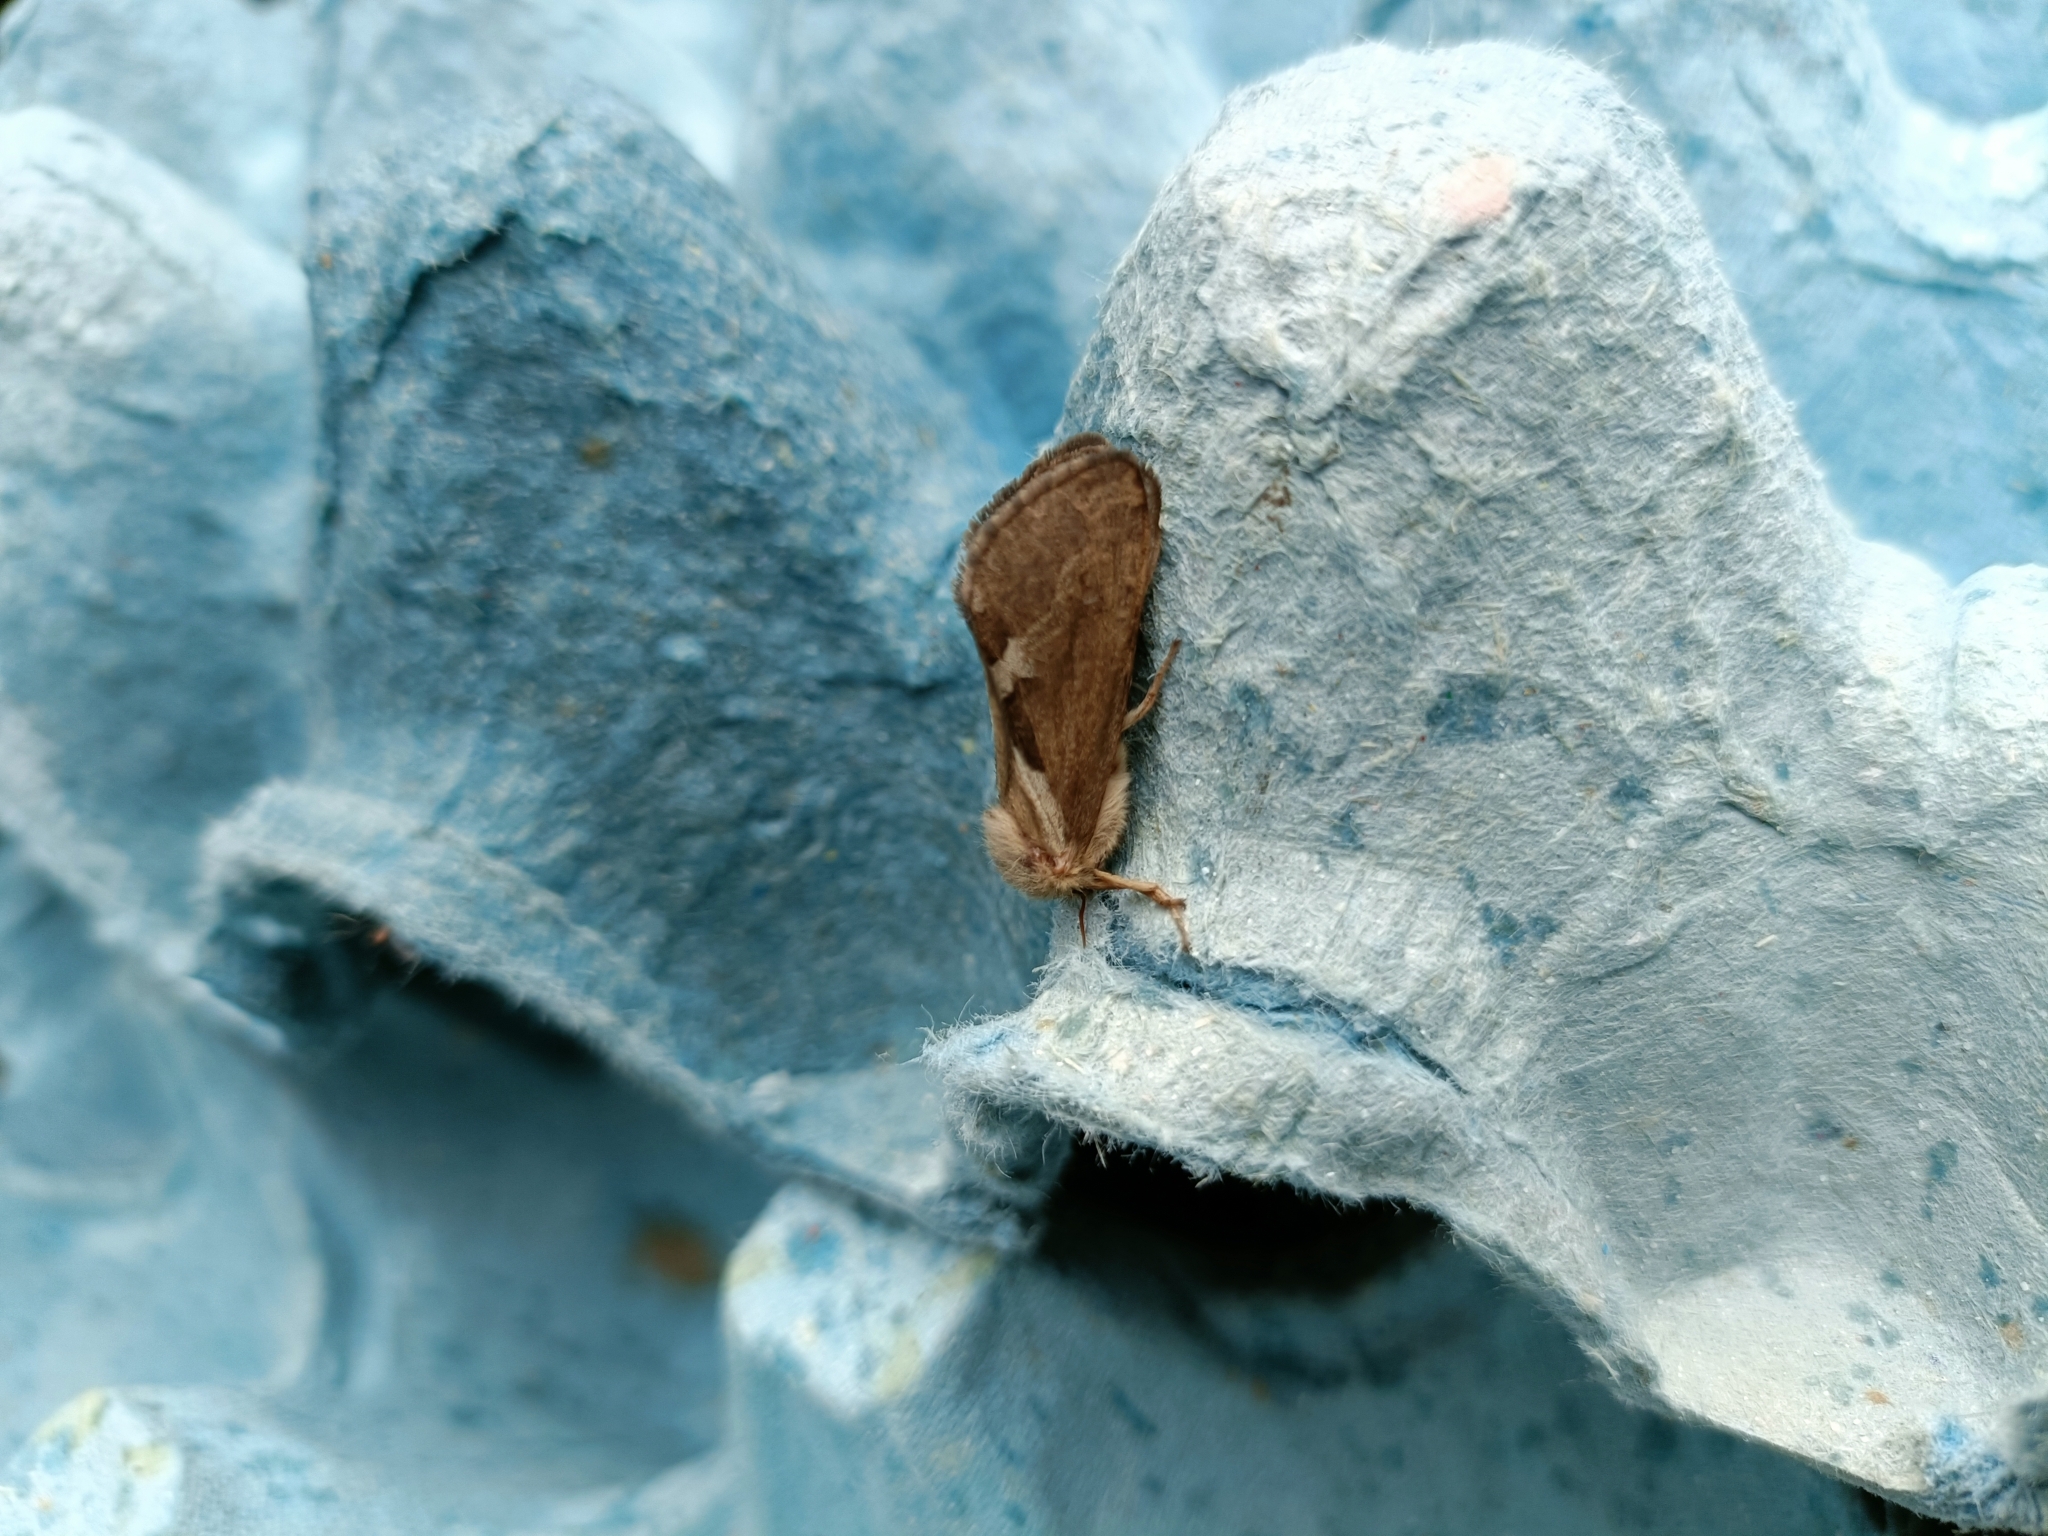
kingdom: Animalia
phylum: Arthropoda
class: Insecta
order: Lepidoptera
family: Hepialidae
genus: Korscheltellus
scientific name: Korscheltellus lupulina
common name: Common swift
